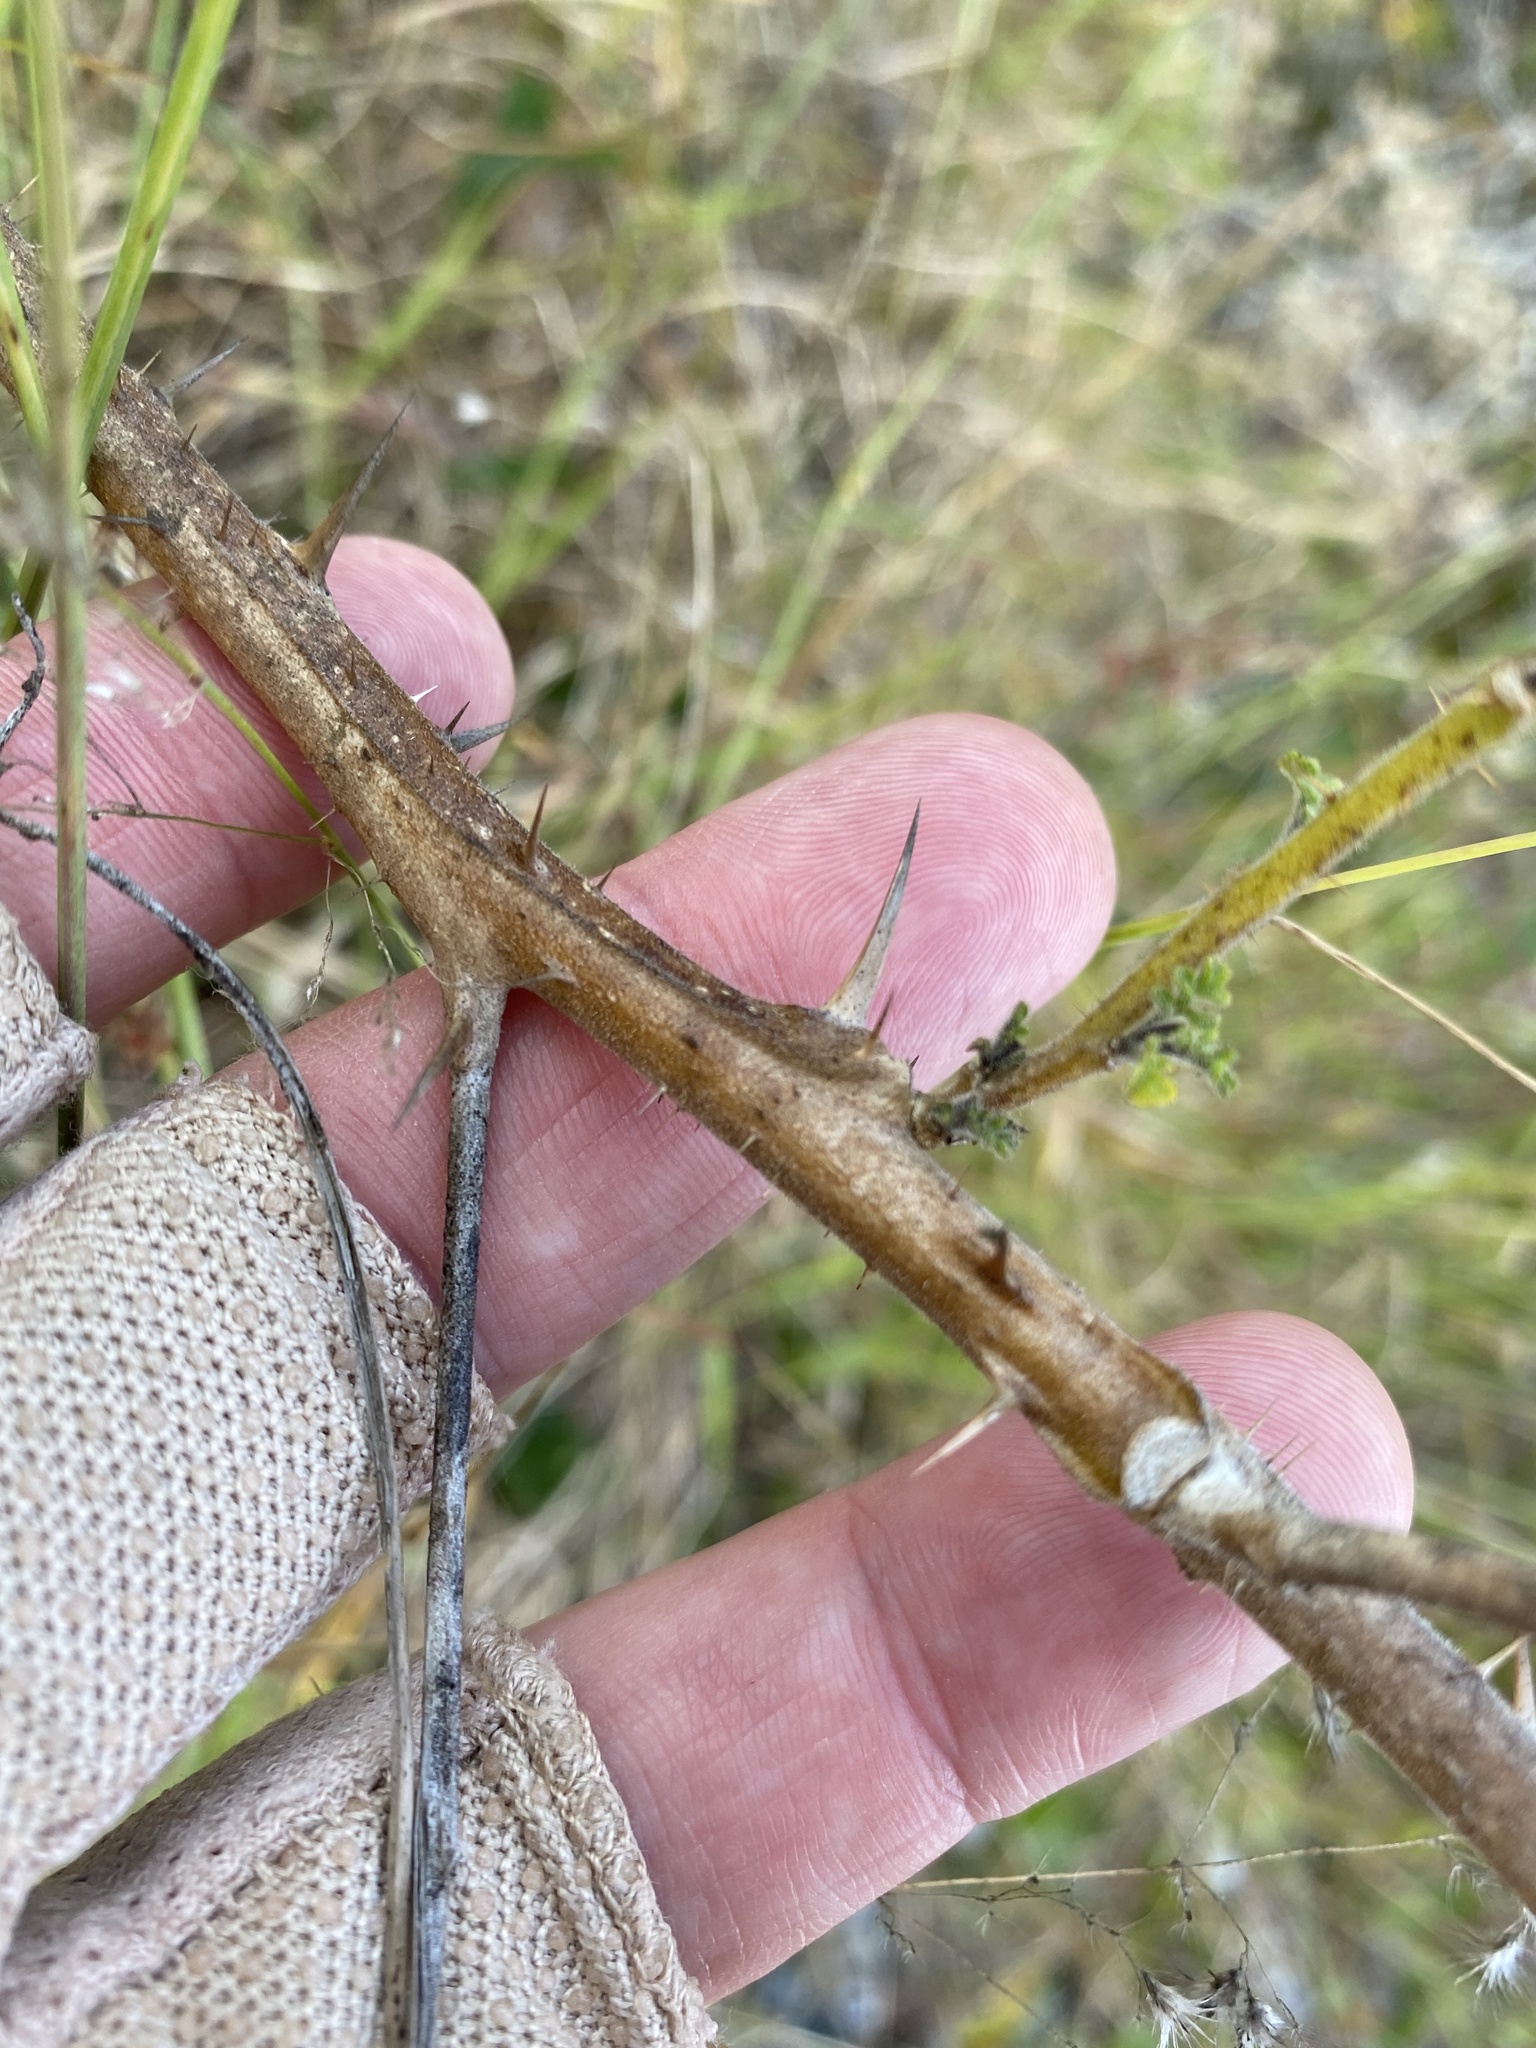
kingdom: Plantae
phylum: Tracheophyta
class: Magnoliopsida
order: Solanales
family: Solanaceae
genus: Solanum
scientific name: Solanum sisymbriifolium
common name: Red buffalo-bur
